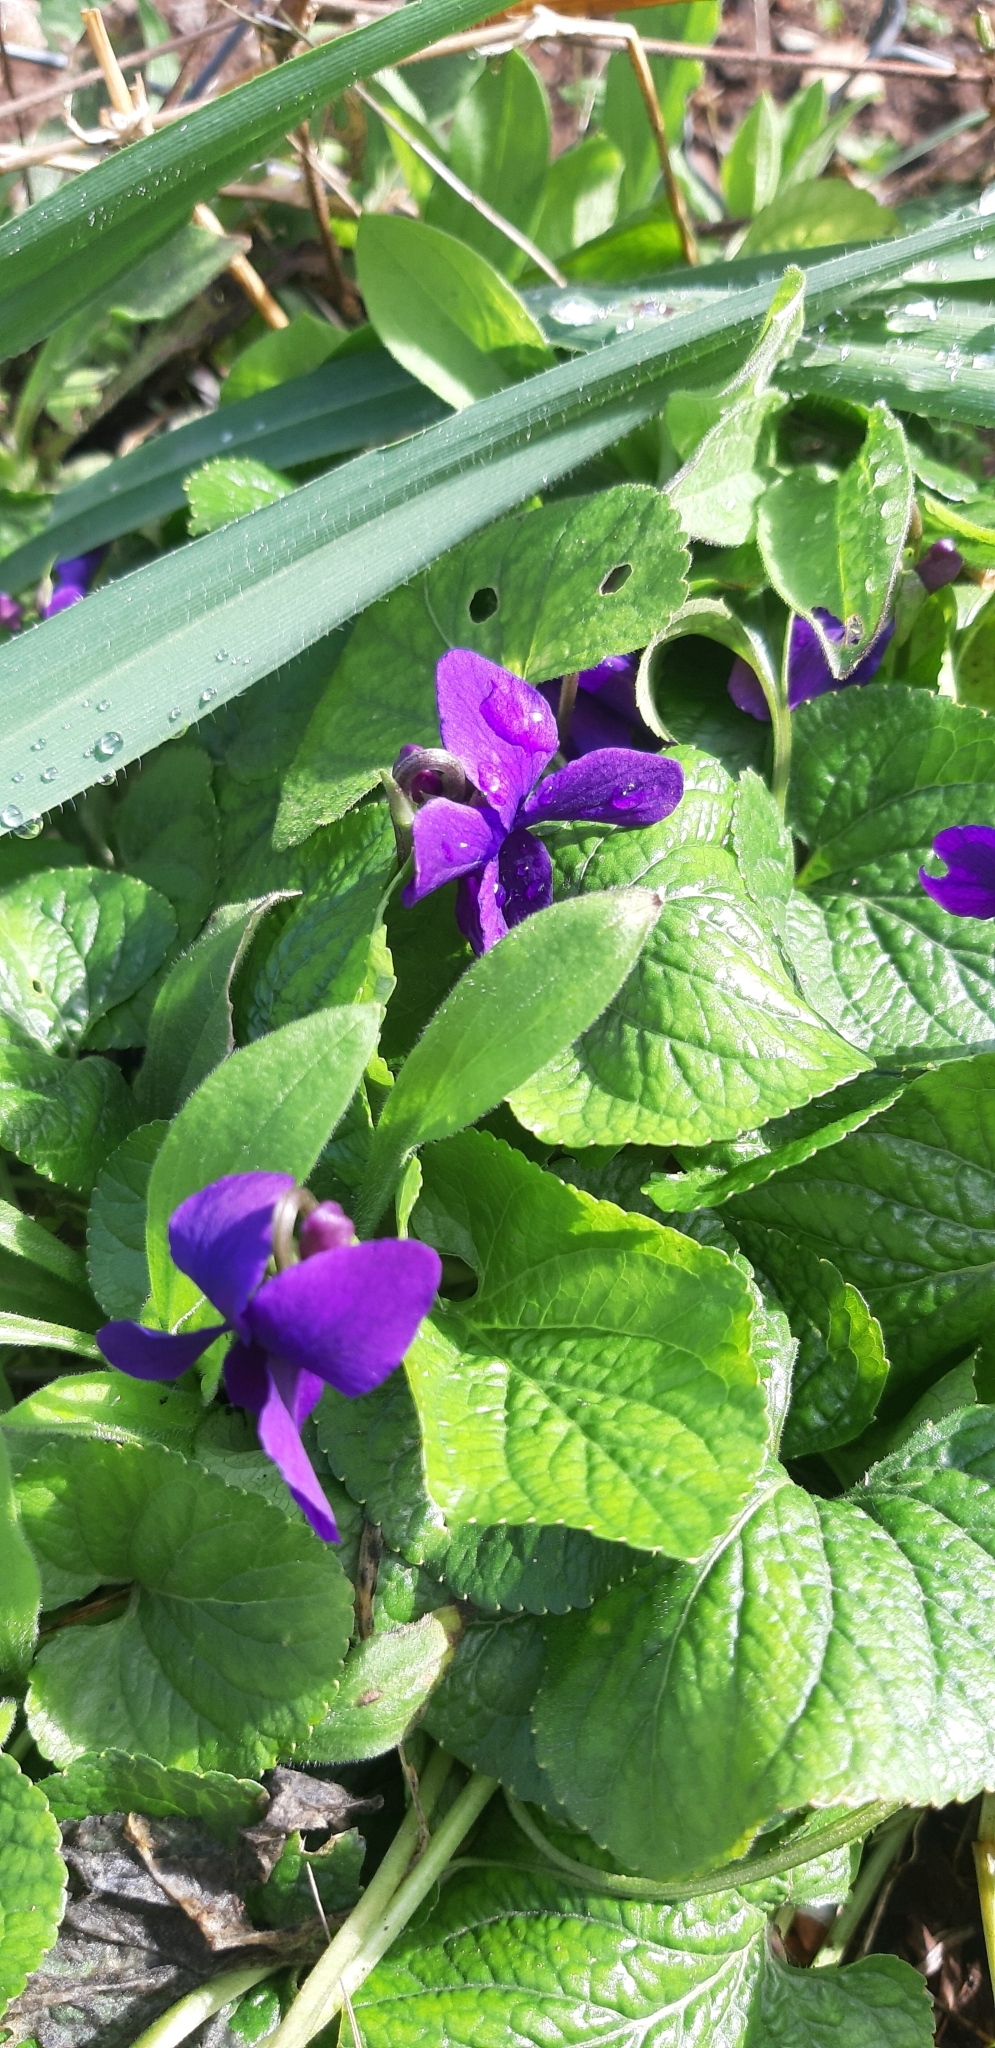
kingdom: Plantae
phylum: Tracheophyta
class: Magnoliopsida
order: Malpighiales
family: Violaceae
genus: Viola
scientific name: Viola odorata
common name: Sweet violet
